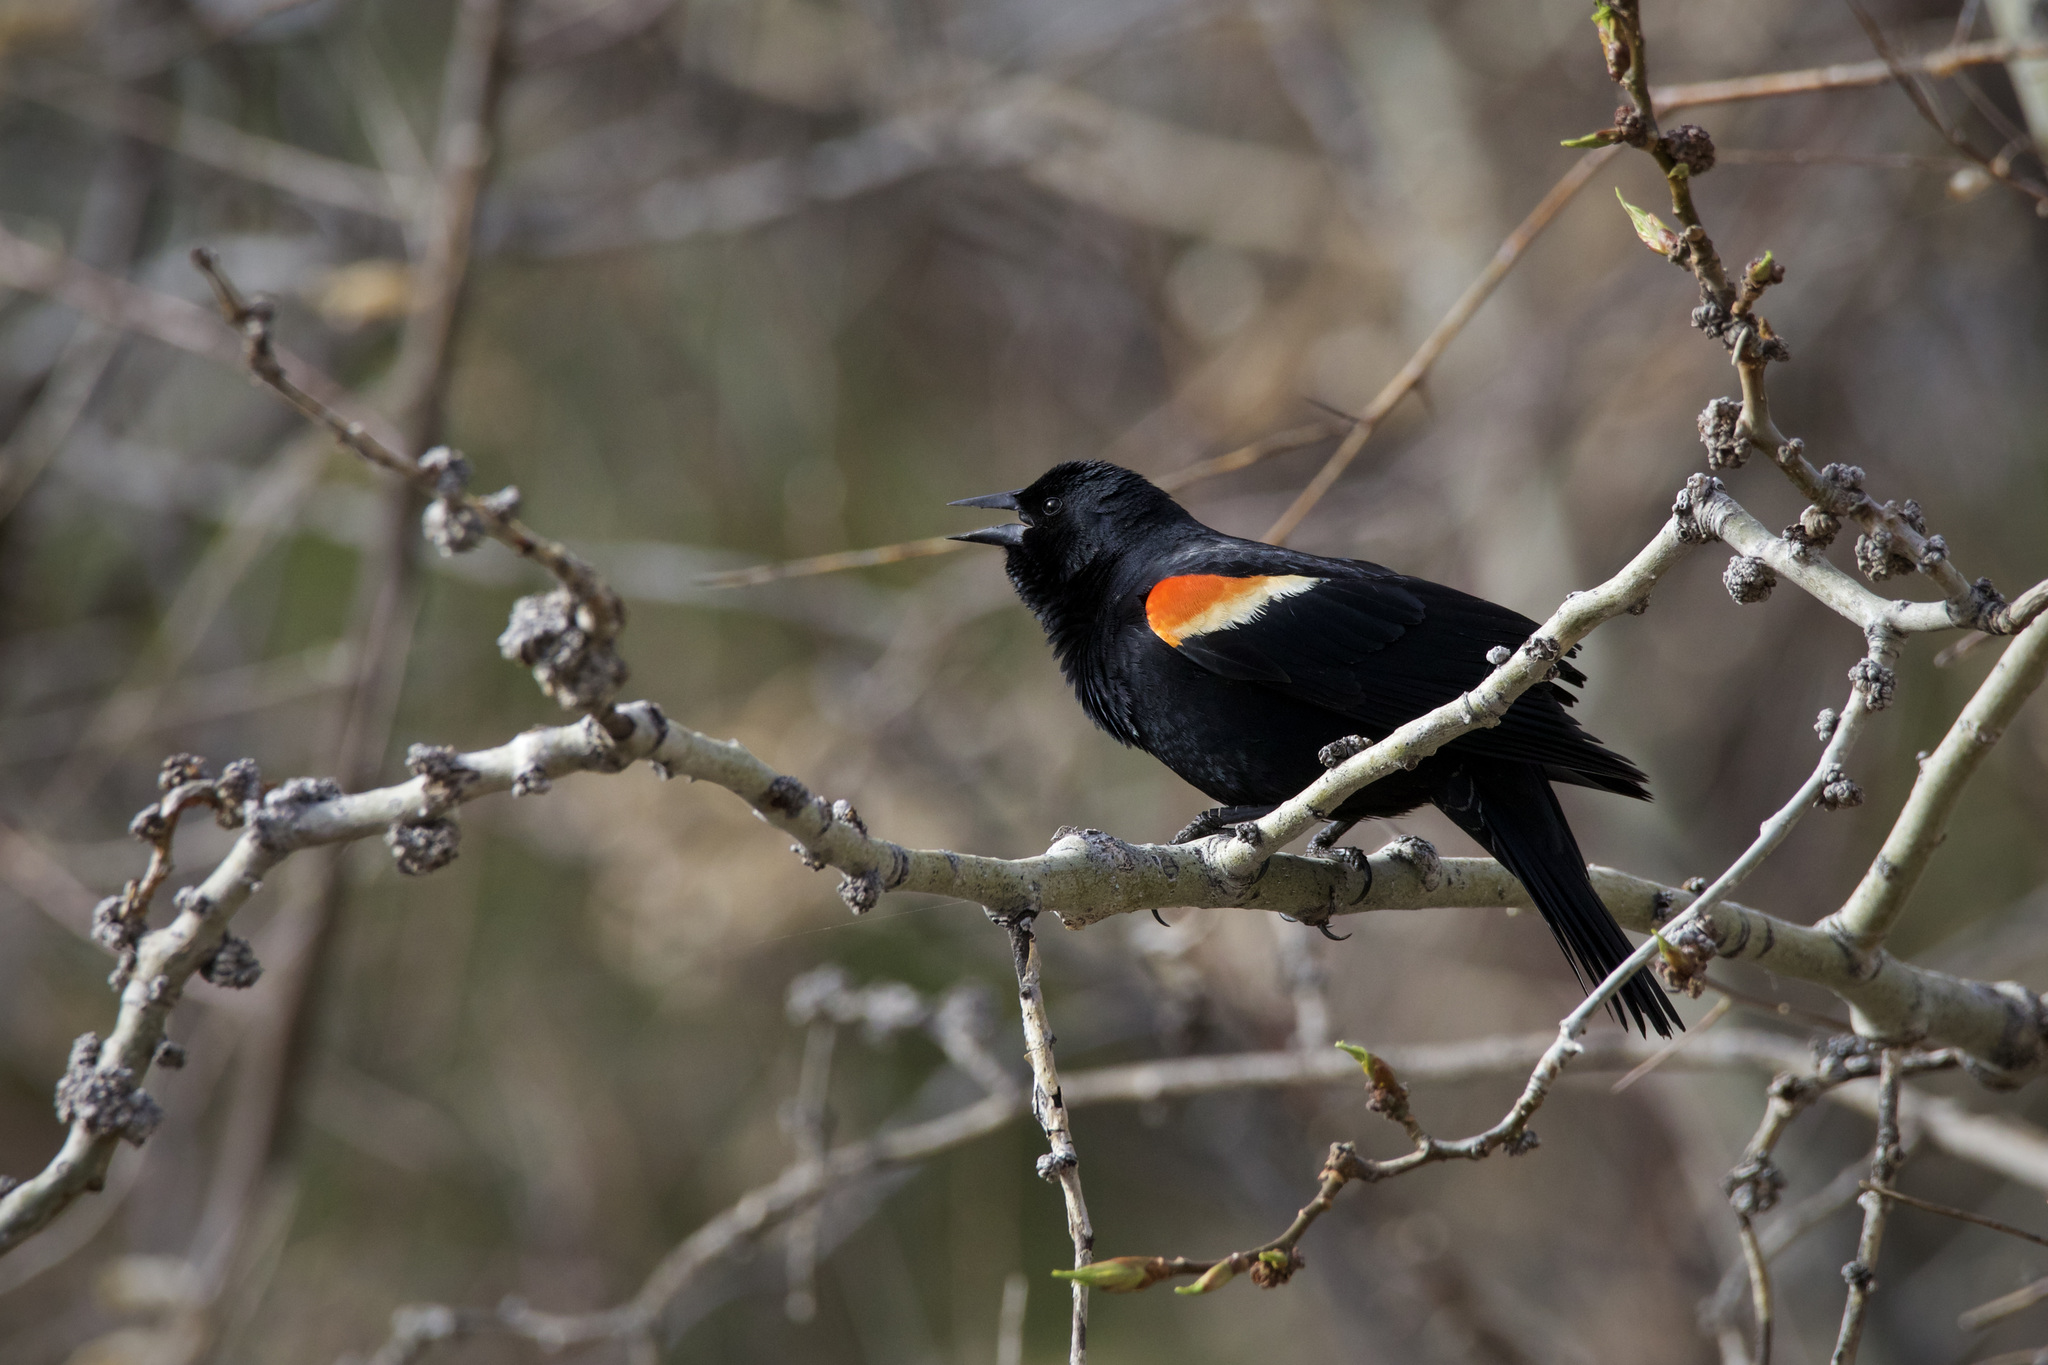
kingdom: Animalia
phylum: Chordata
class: Aves
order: Passeriformes
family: Icteridae
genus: Agelaius
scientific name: Agelaius phoeniceus
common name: Red-winged blackbird
